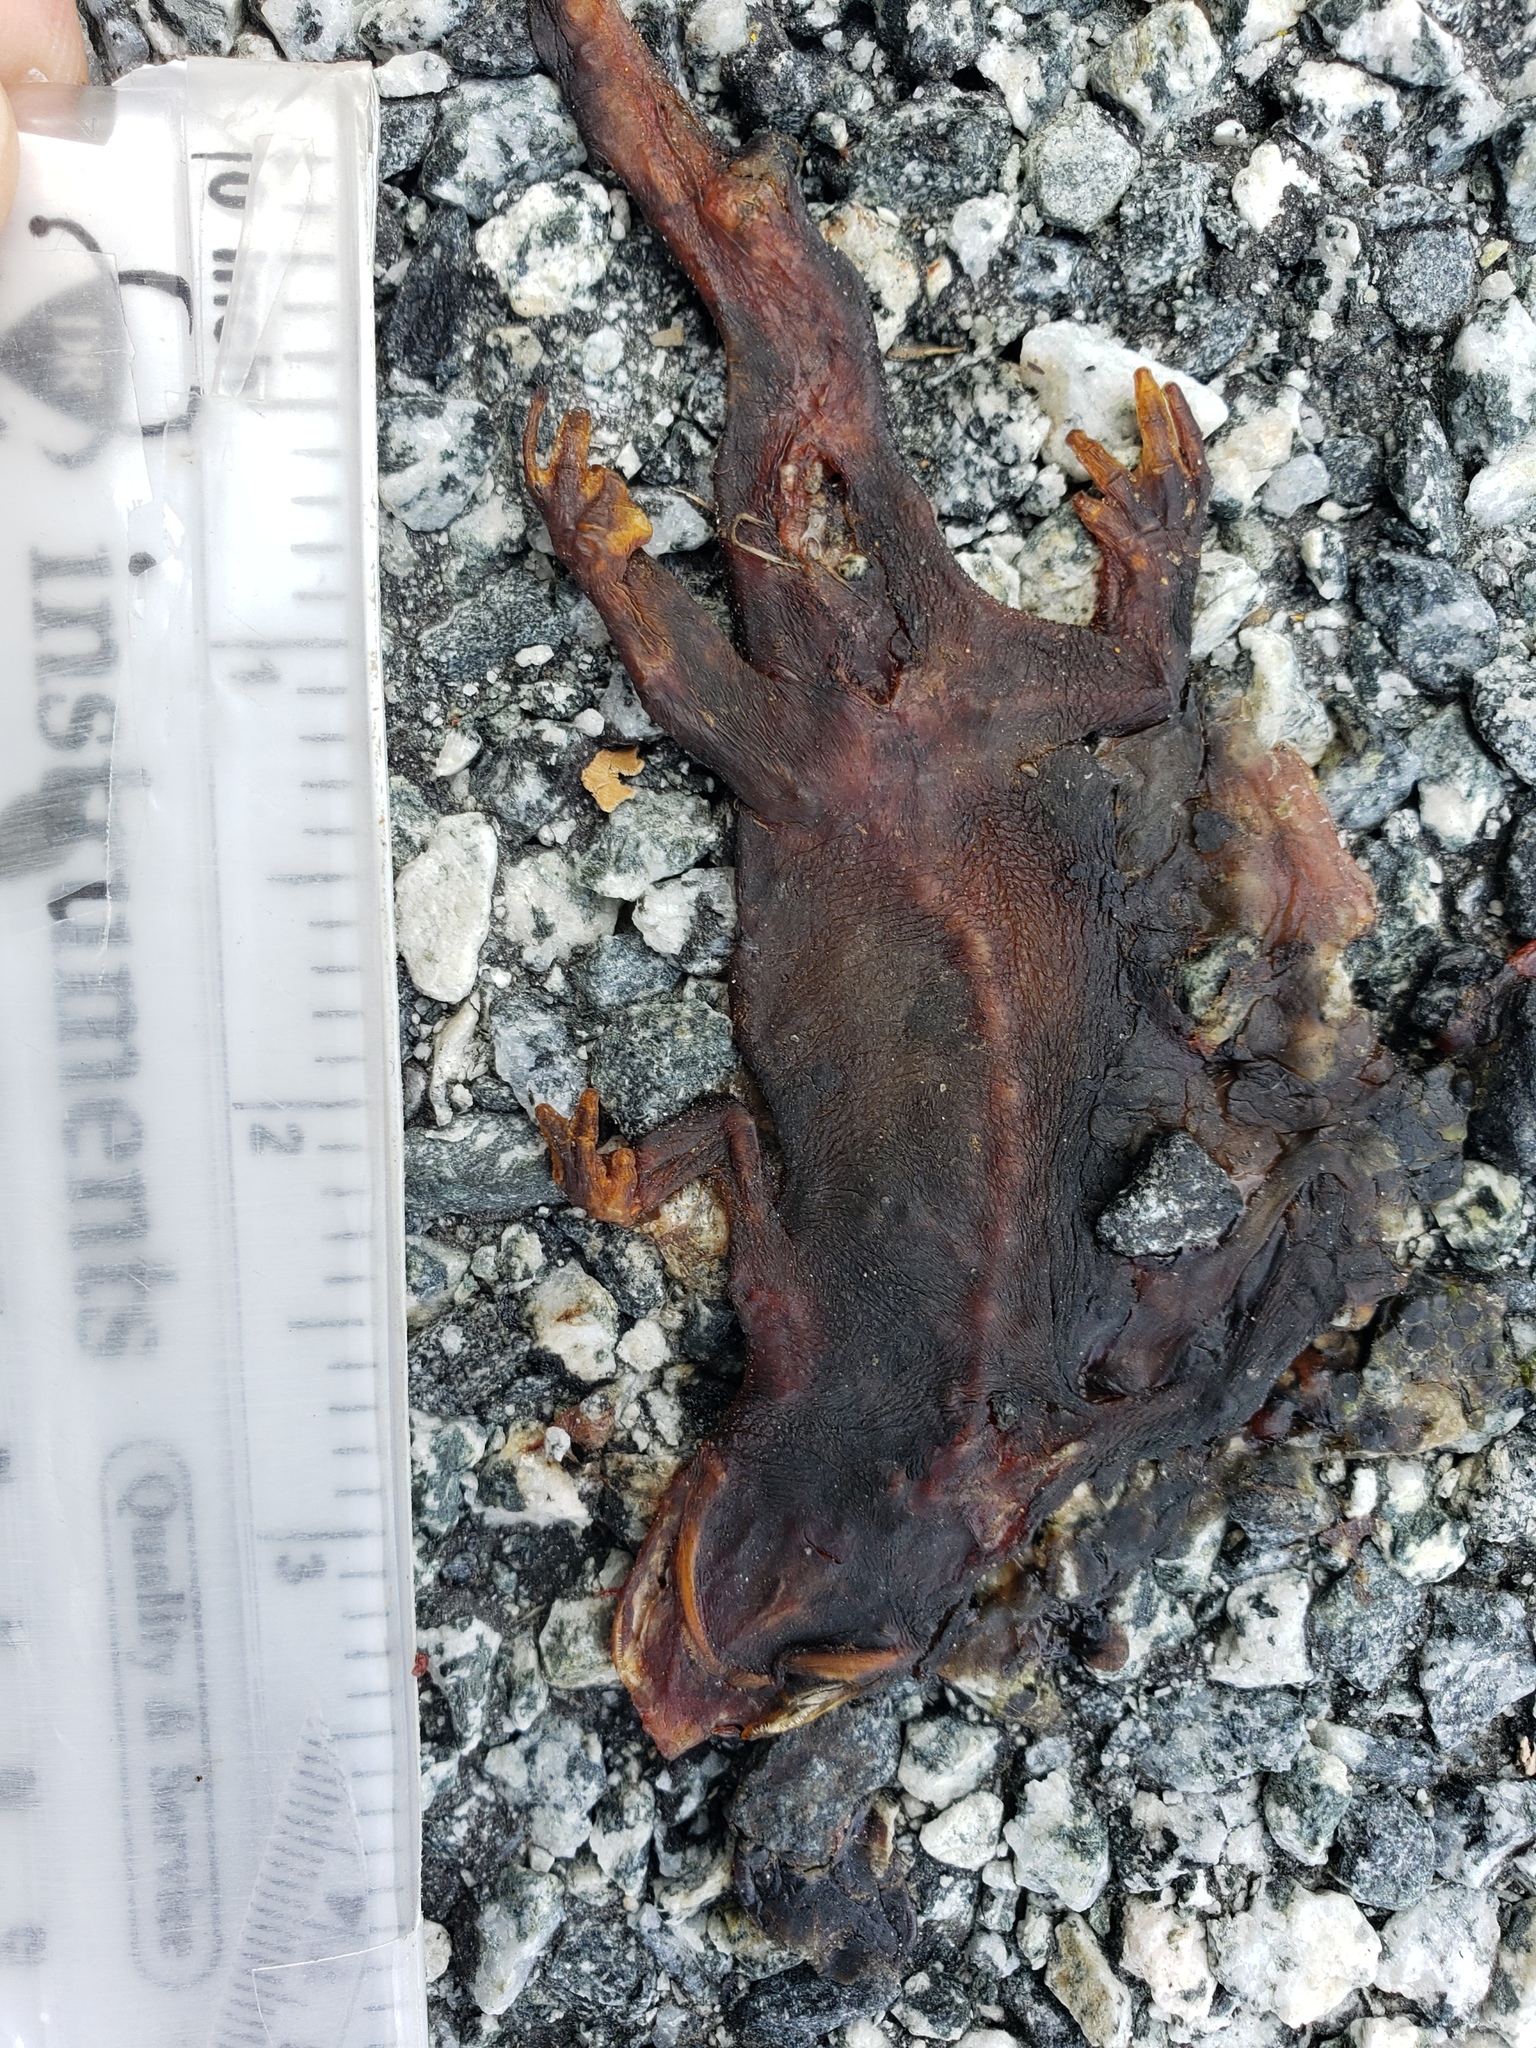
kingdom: Animalia
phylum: Chordata
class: Amphibia
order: Caudata
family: Salamandridae
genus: Taricha
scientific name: Taricha
